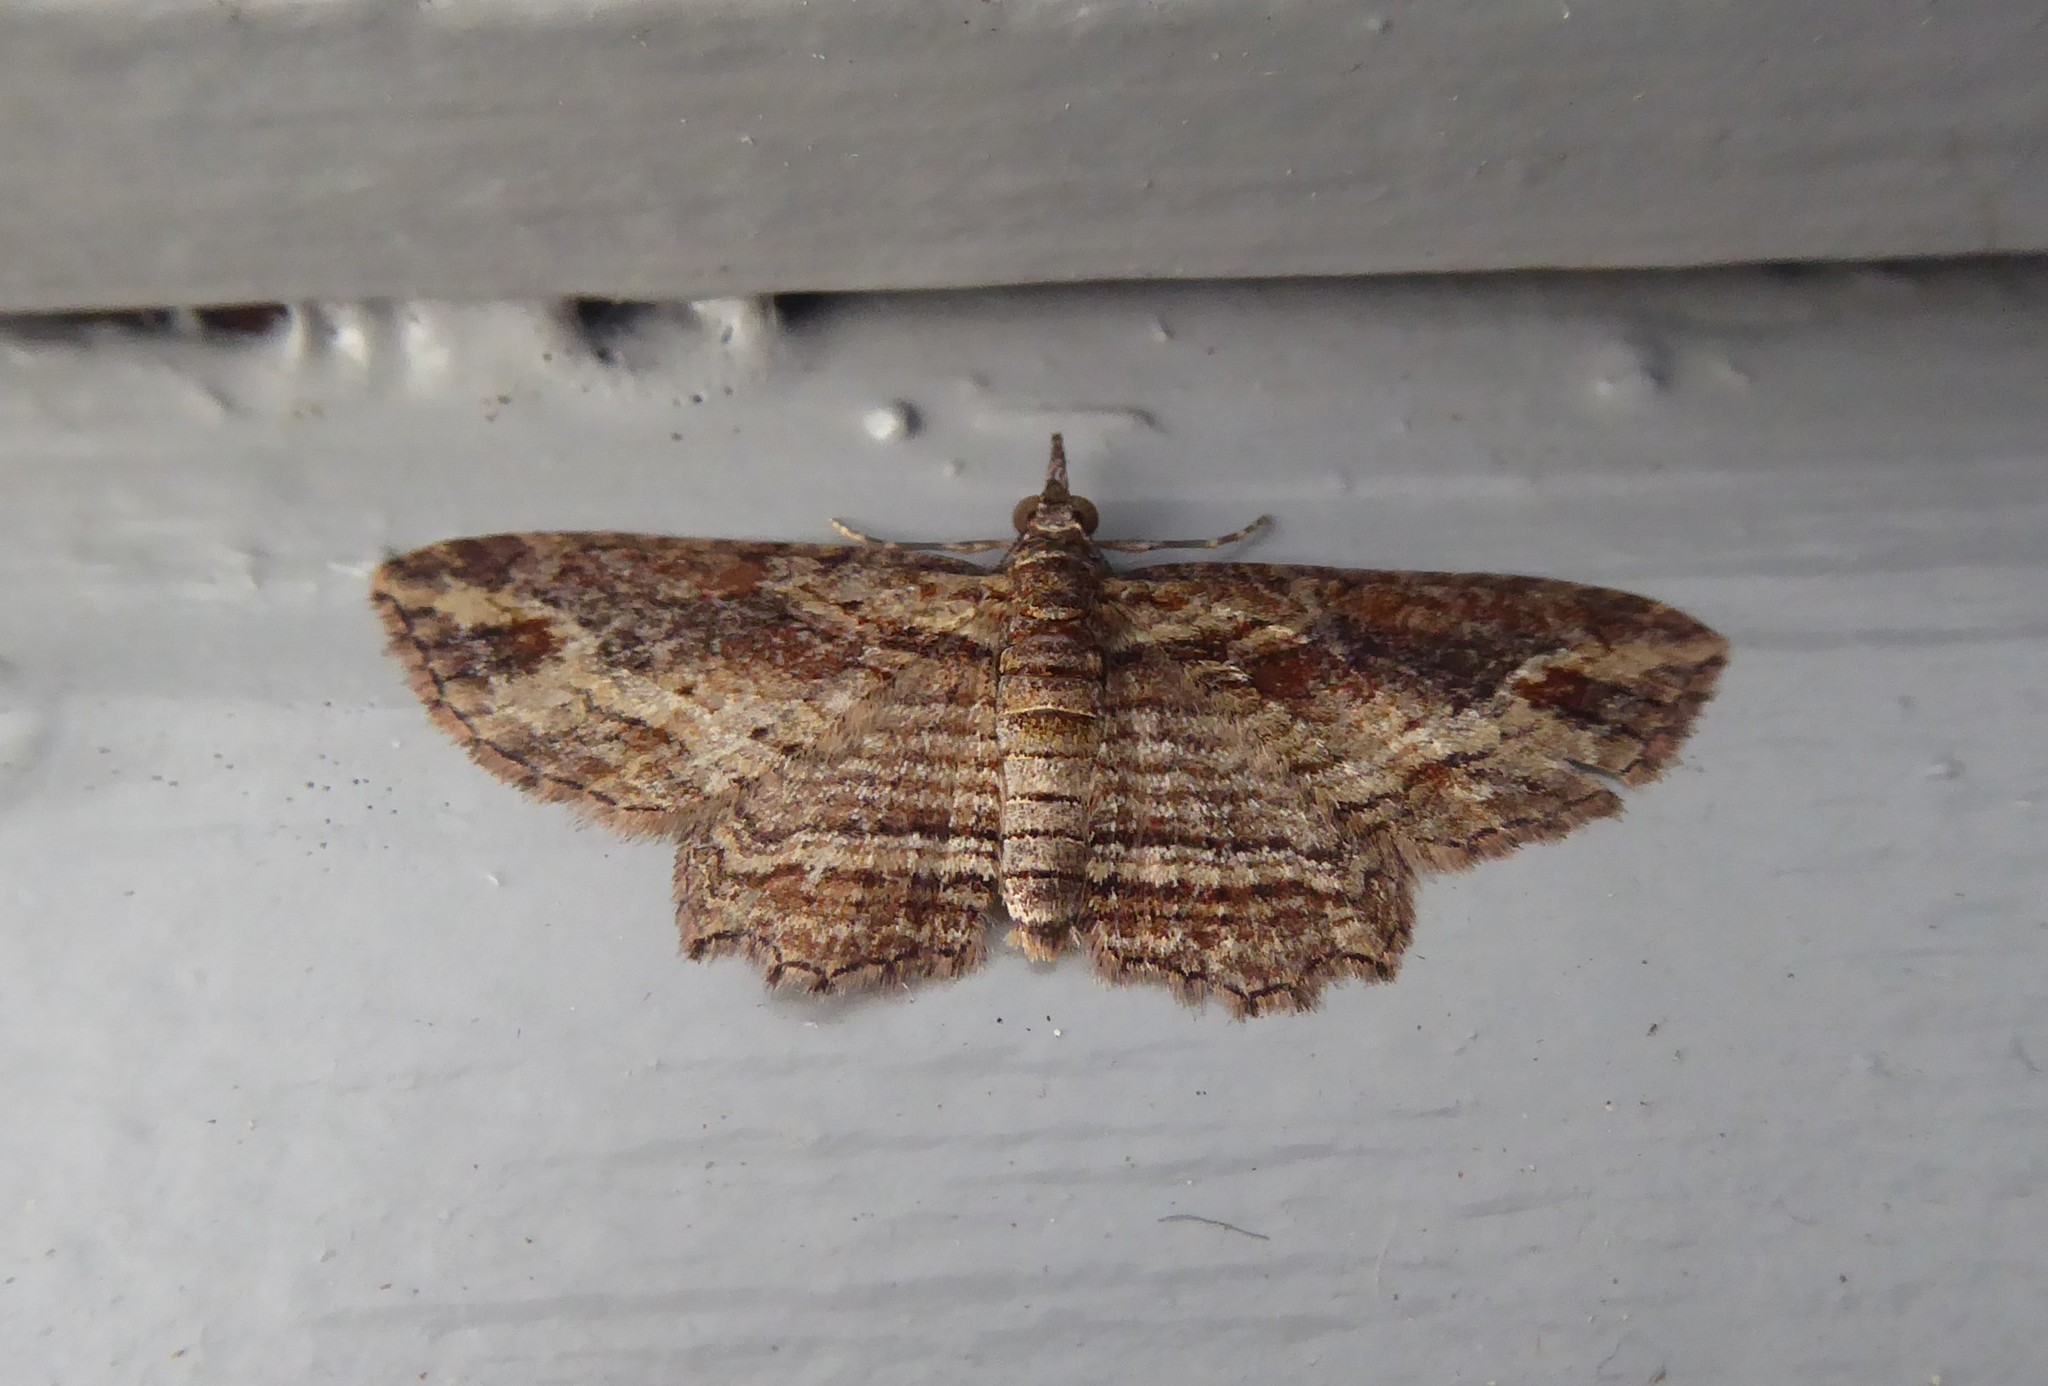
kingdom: Animalia
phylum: Arthropoda
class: Insecta
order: Lepidoptera
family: Geometridae
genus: Chloroclystis
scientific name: Chloroclystis filata
